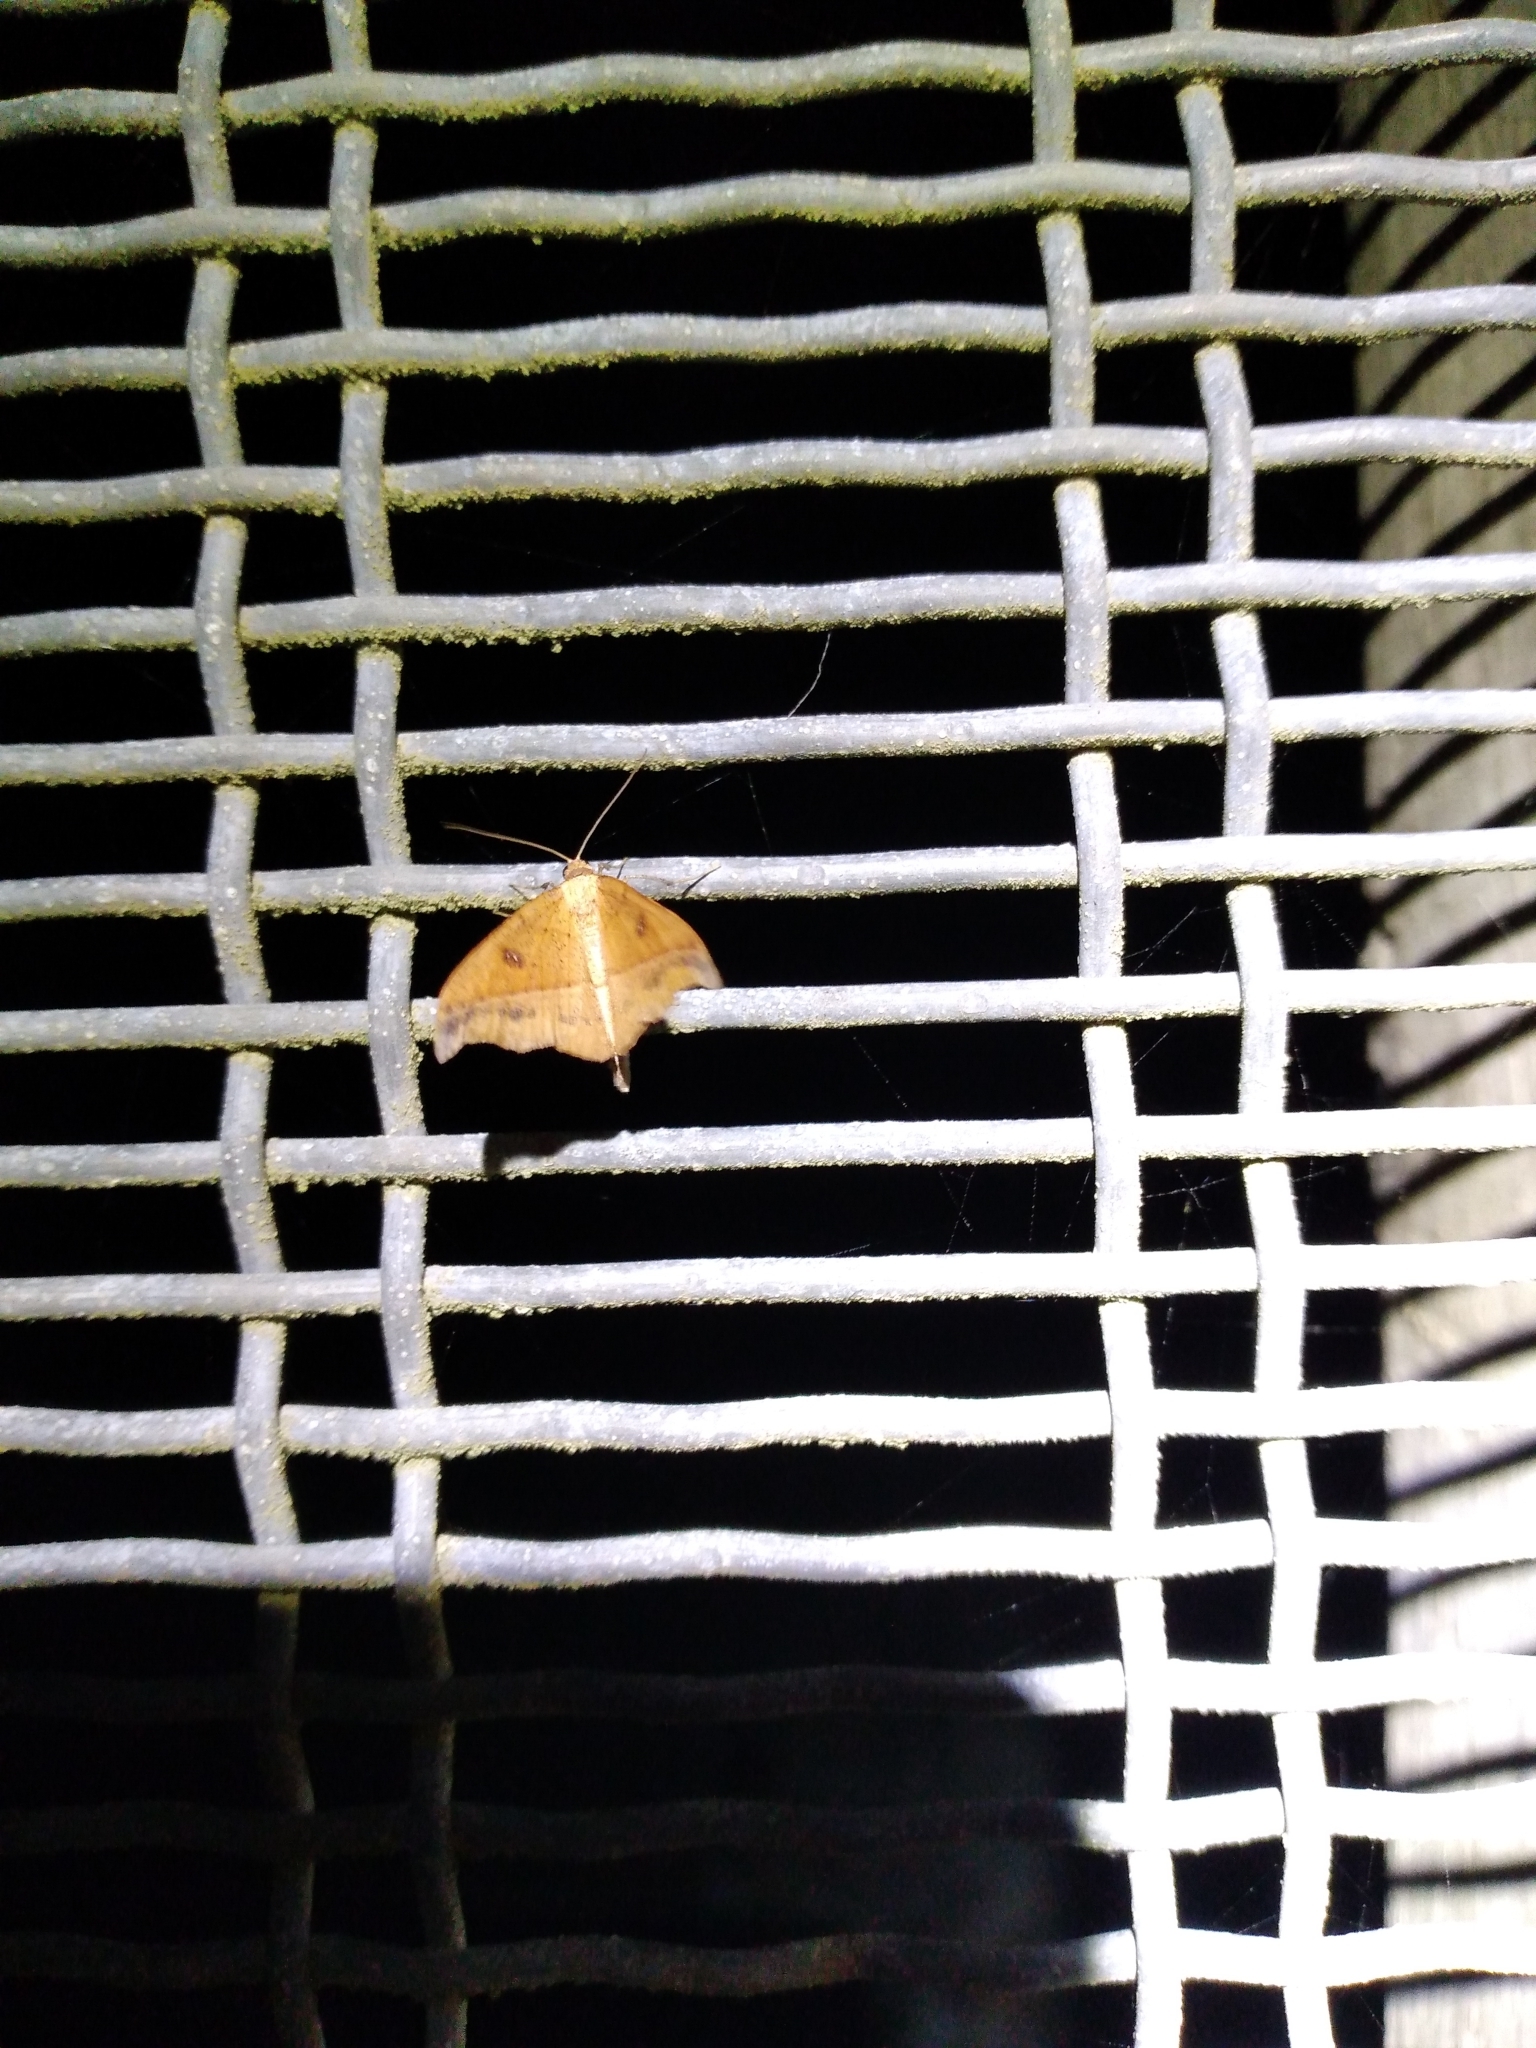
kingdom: Animalia
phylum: Arthropoda
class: Insecta
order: Lepidoptera
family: Geometridae
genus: Sarisa
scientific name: Sarisa muriferata
